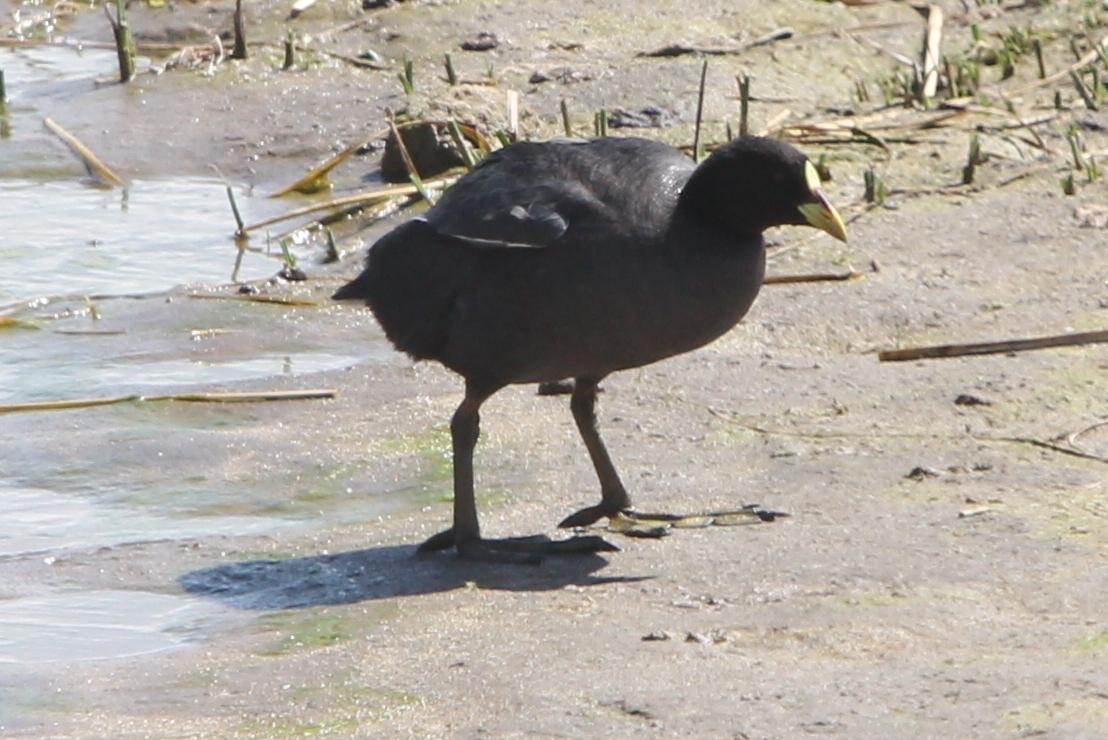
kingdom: Animalia
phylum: Chordata
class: Aves
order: Gruiformes
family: Rallidae
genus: Fulica
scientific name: Fulica armillata
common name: Red-gartered coot
